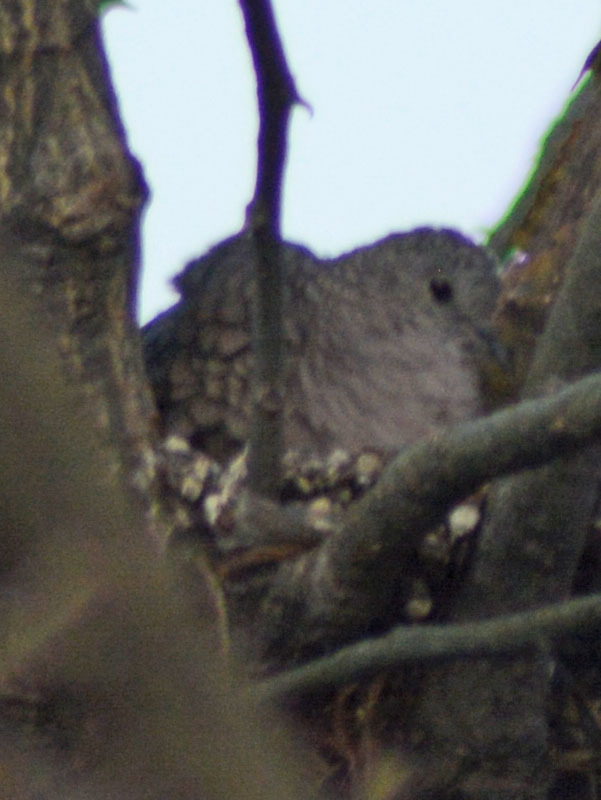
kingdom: Animalia
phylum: Chordata
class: Aves
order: Columbiformes
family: Columbidae
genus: Columbina
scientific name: Columbina inca
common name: Inca dove
